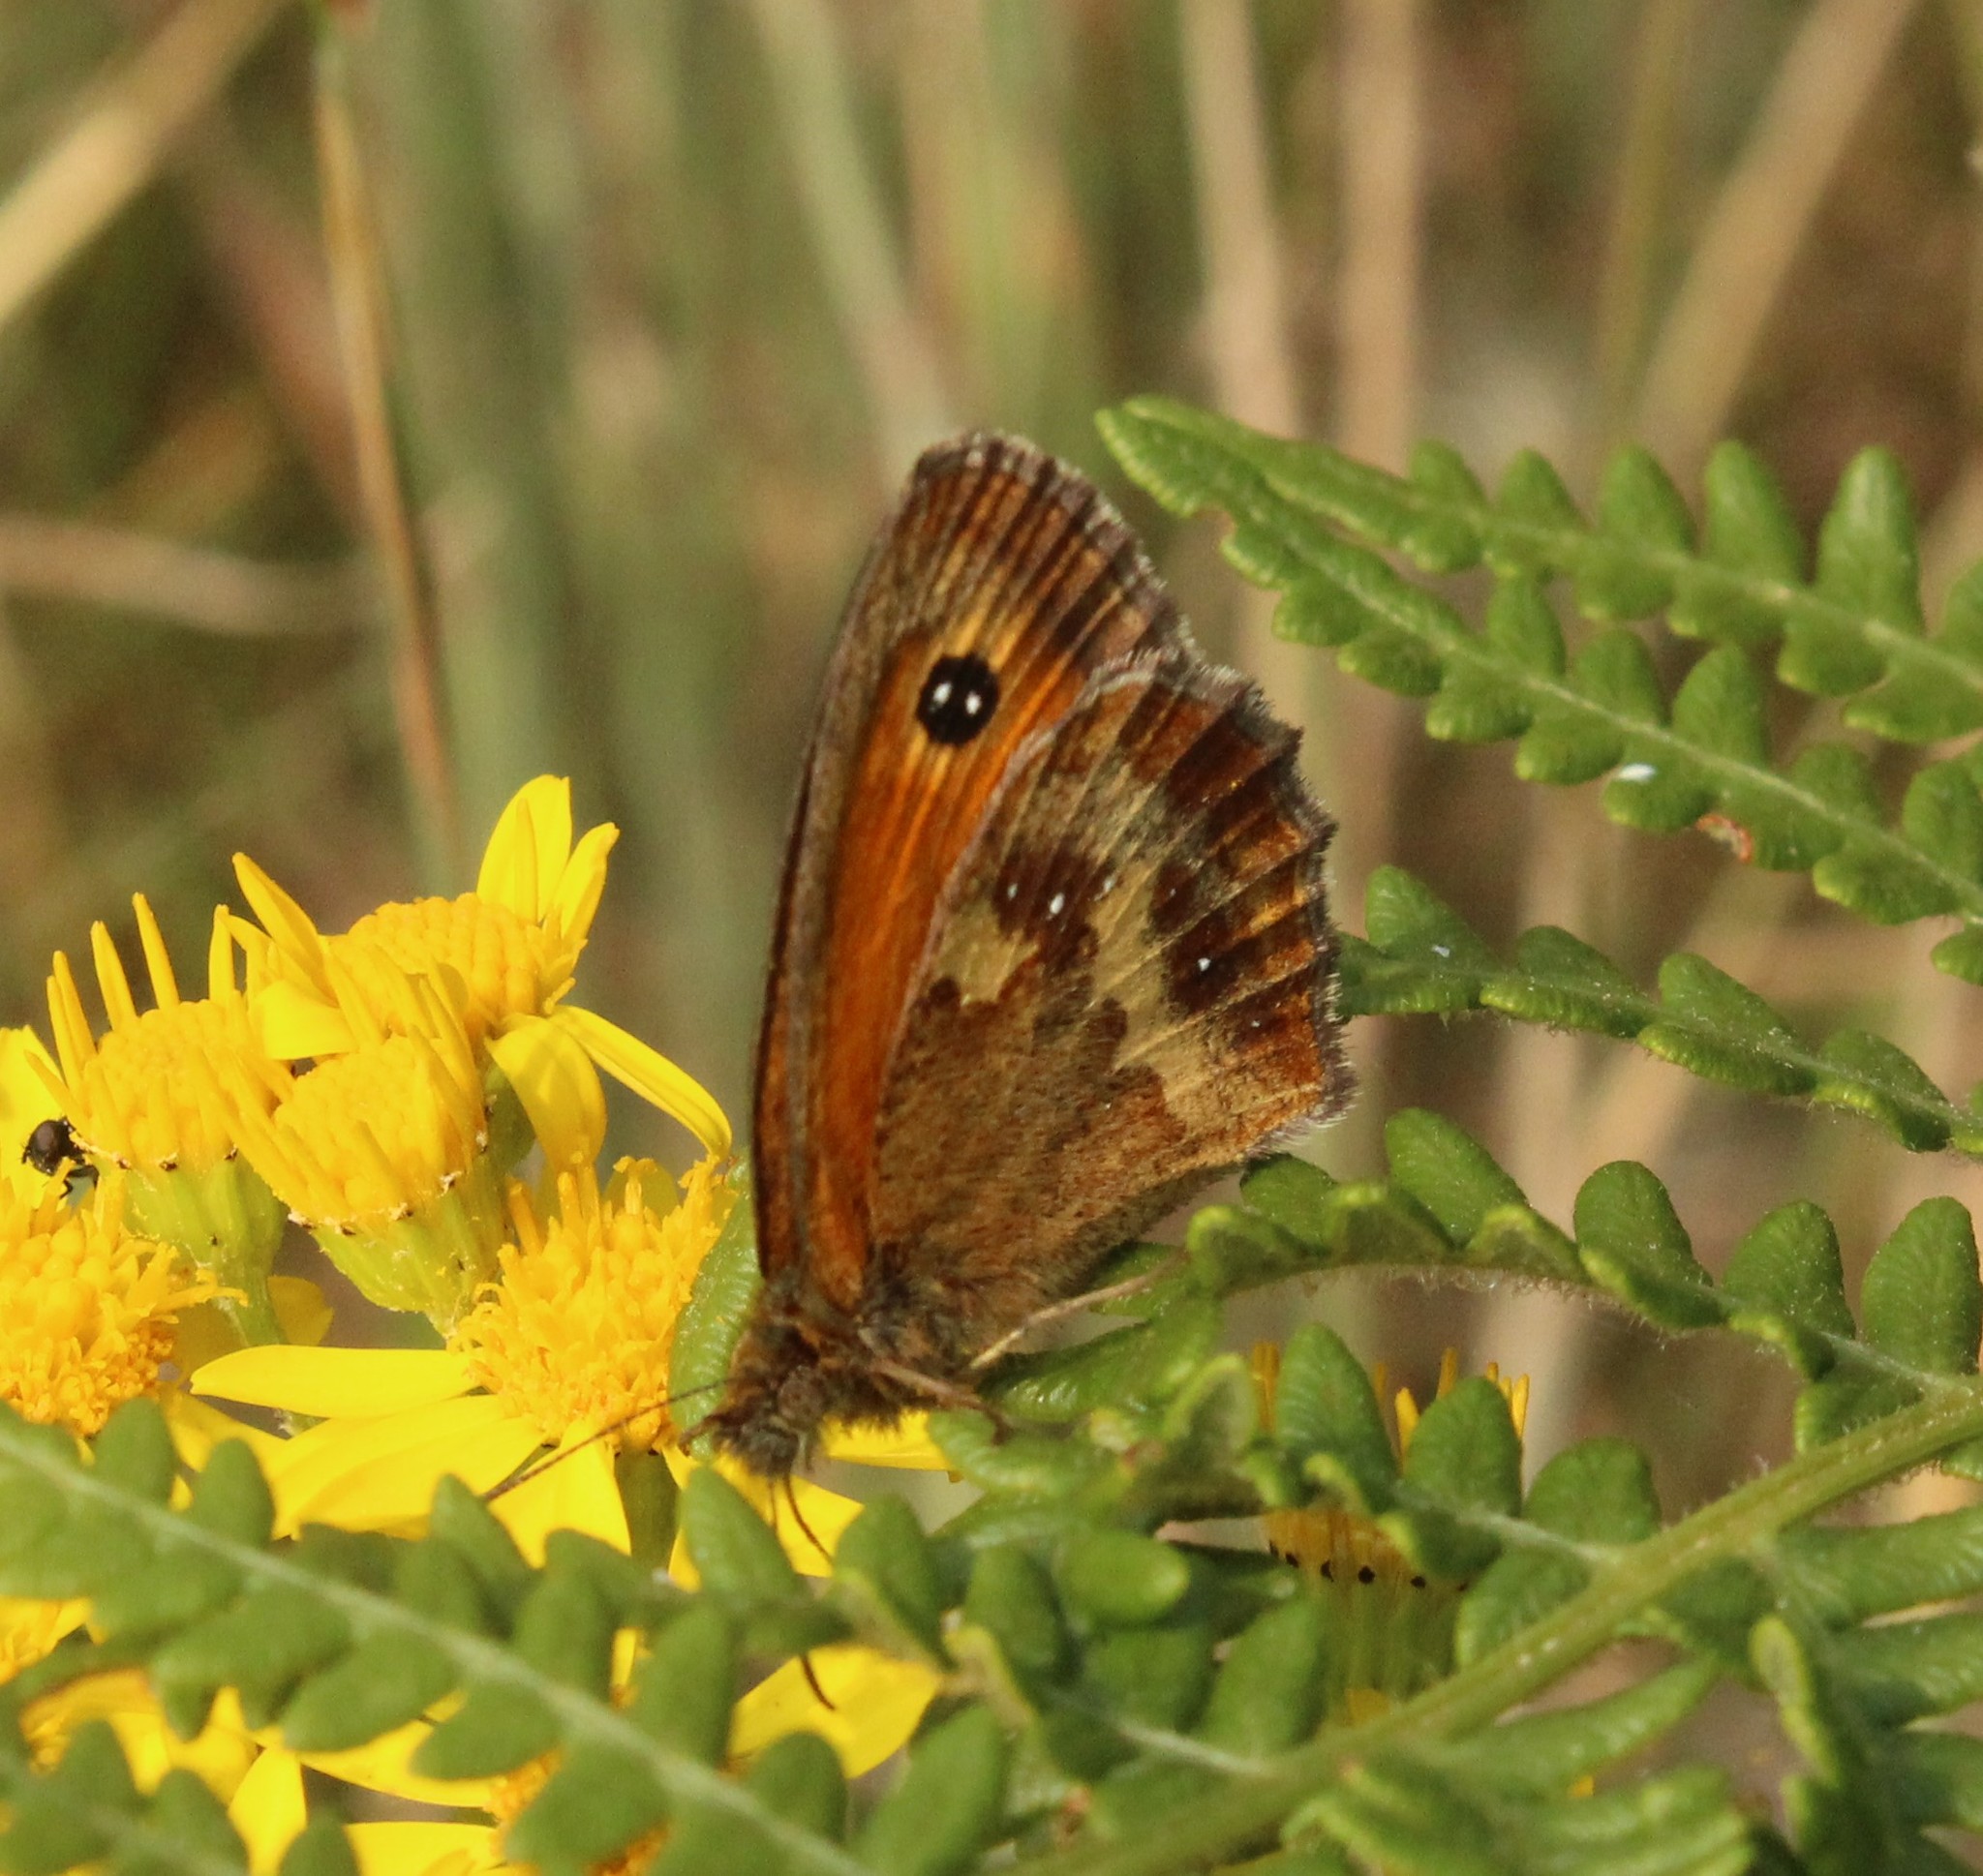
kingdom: Animalia
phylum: Arthropoda
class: Insecta
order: Lepidoptera
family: Nymphalidae
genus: Pyronia
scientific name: Pyronia tithonus
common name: Gatekeeper
